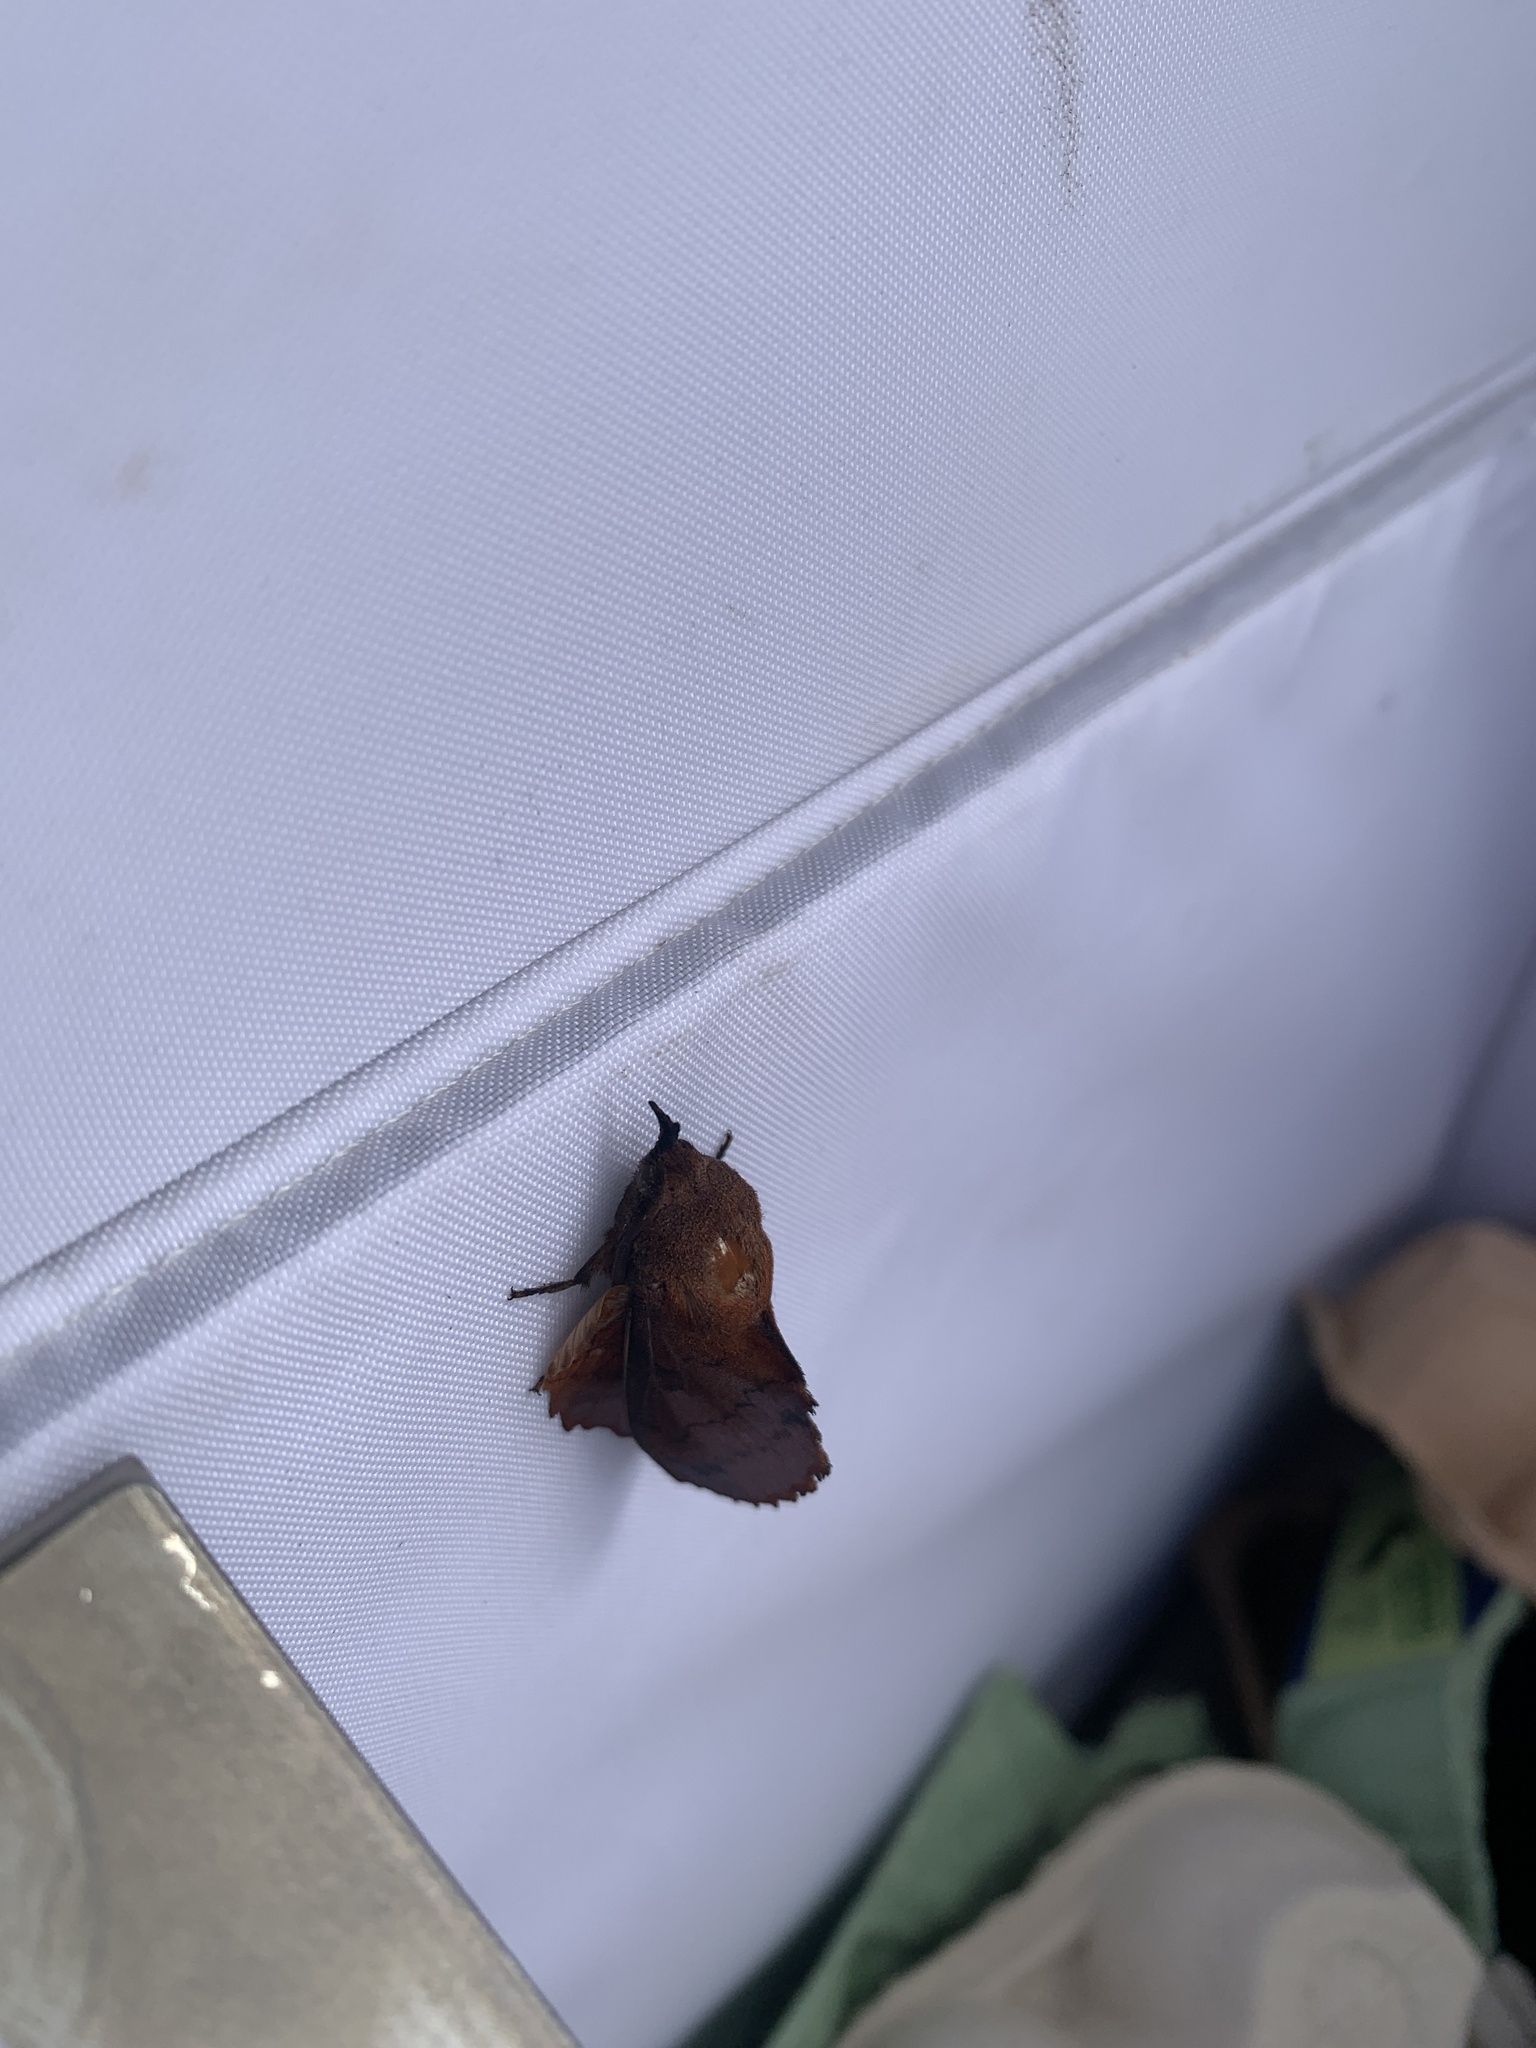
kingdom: Animalia
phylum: Arthropoda
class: Insecta
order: Lepidoptera
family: Lasiocampidae
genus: Gastropacha
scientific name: Gastropacha quercifolia
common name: Lappet
